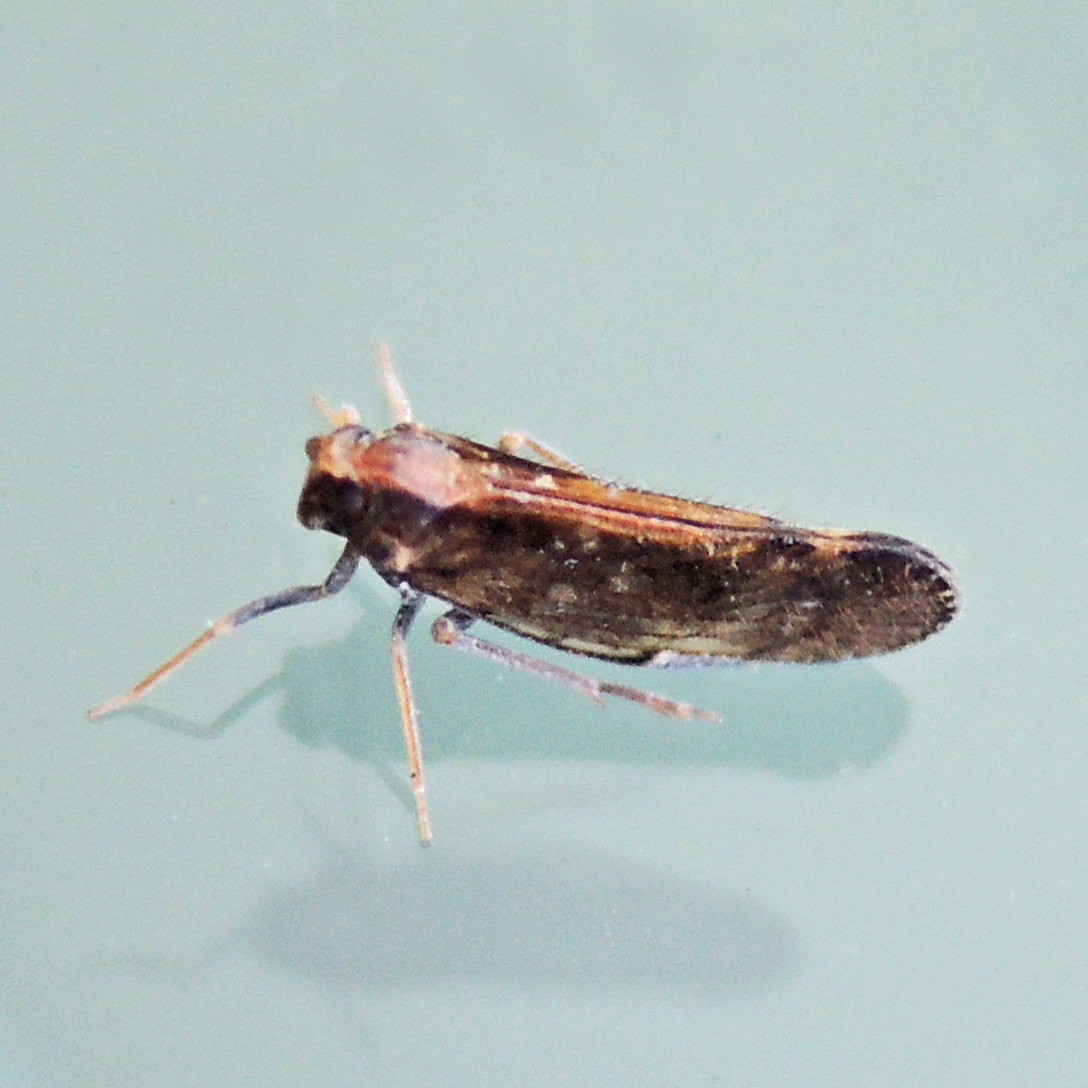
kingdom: Animalia
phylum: Arthropoda
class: Insecta
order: Hemiptera
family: Cixiidae
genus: Pintalia
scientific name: Pintalia vibex
